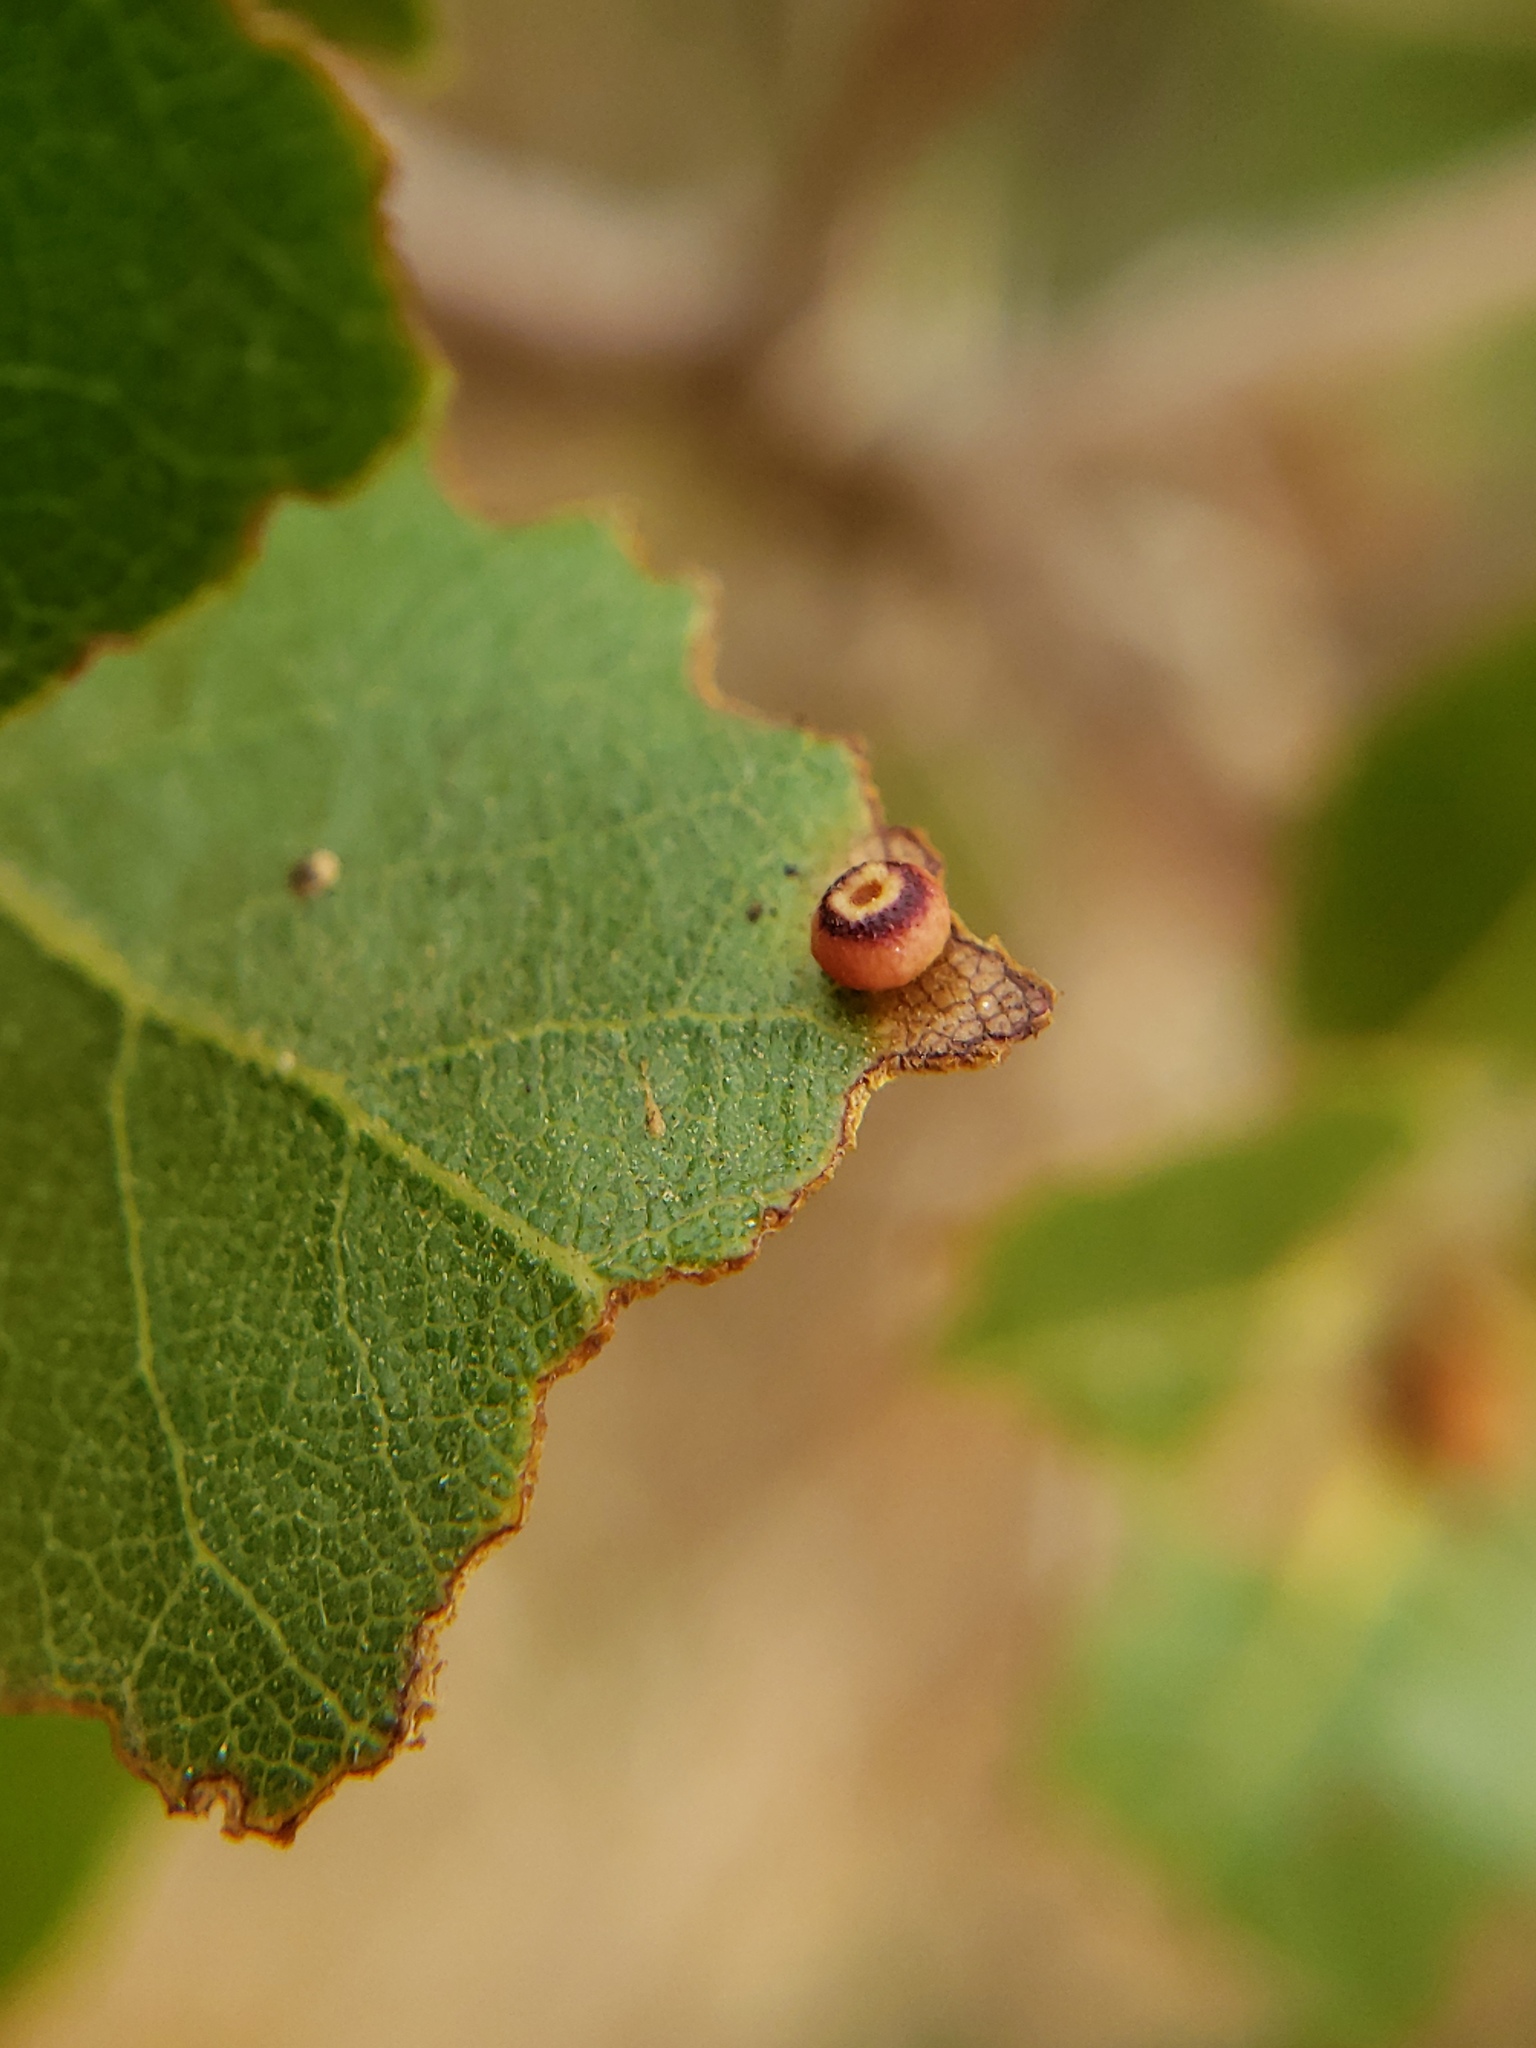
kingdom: Animalia
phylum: Arthropoda
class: Insecta
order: Hymenoptera
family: Cynipidae
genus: Dryocosmus
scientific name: Dryocosmus
